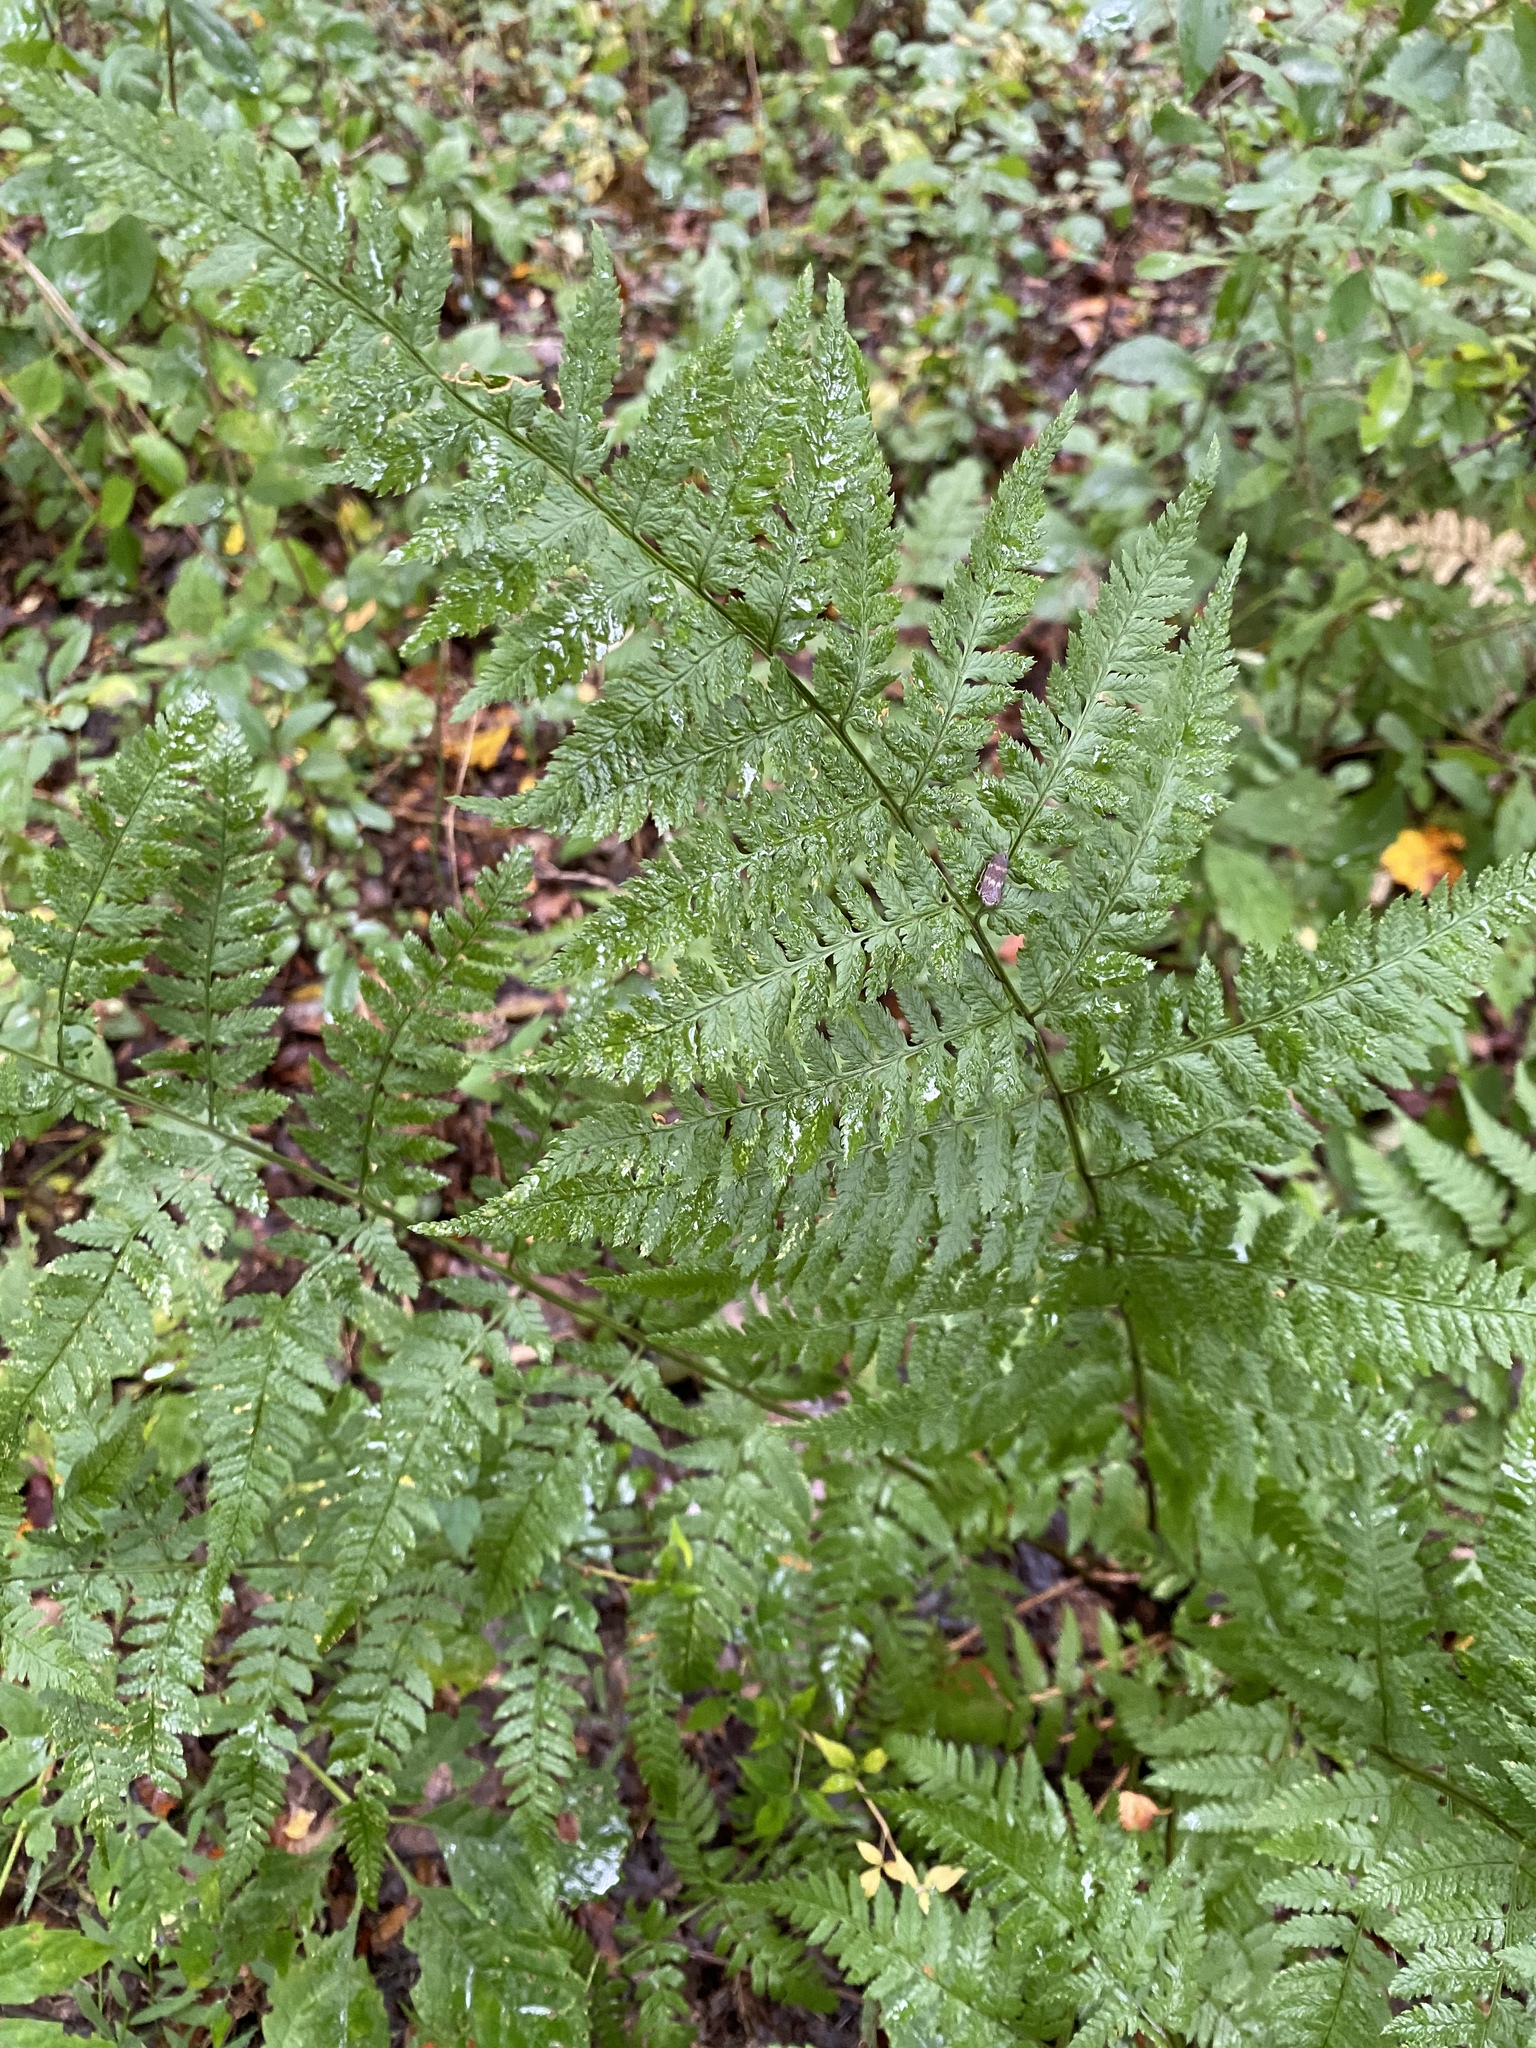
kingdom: Plantae
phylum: Tracheophyta
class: Polypodiopsida
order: Polypodiales
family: Dryopteridaceae
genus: Dryopteris
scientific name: Dryopteris carthusiana
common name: Narrow buckler-fern
